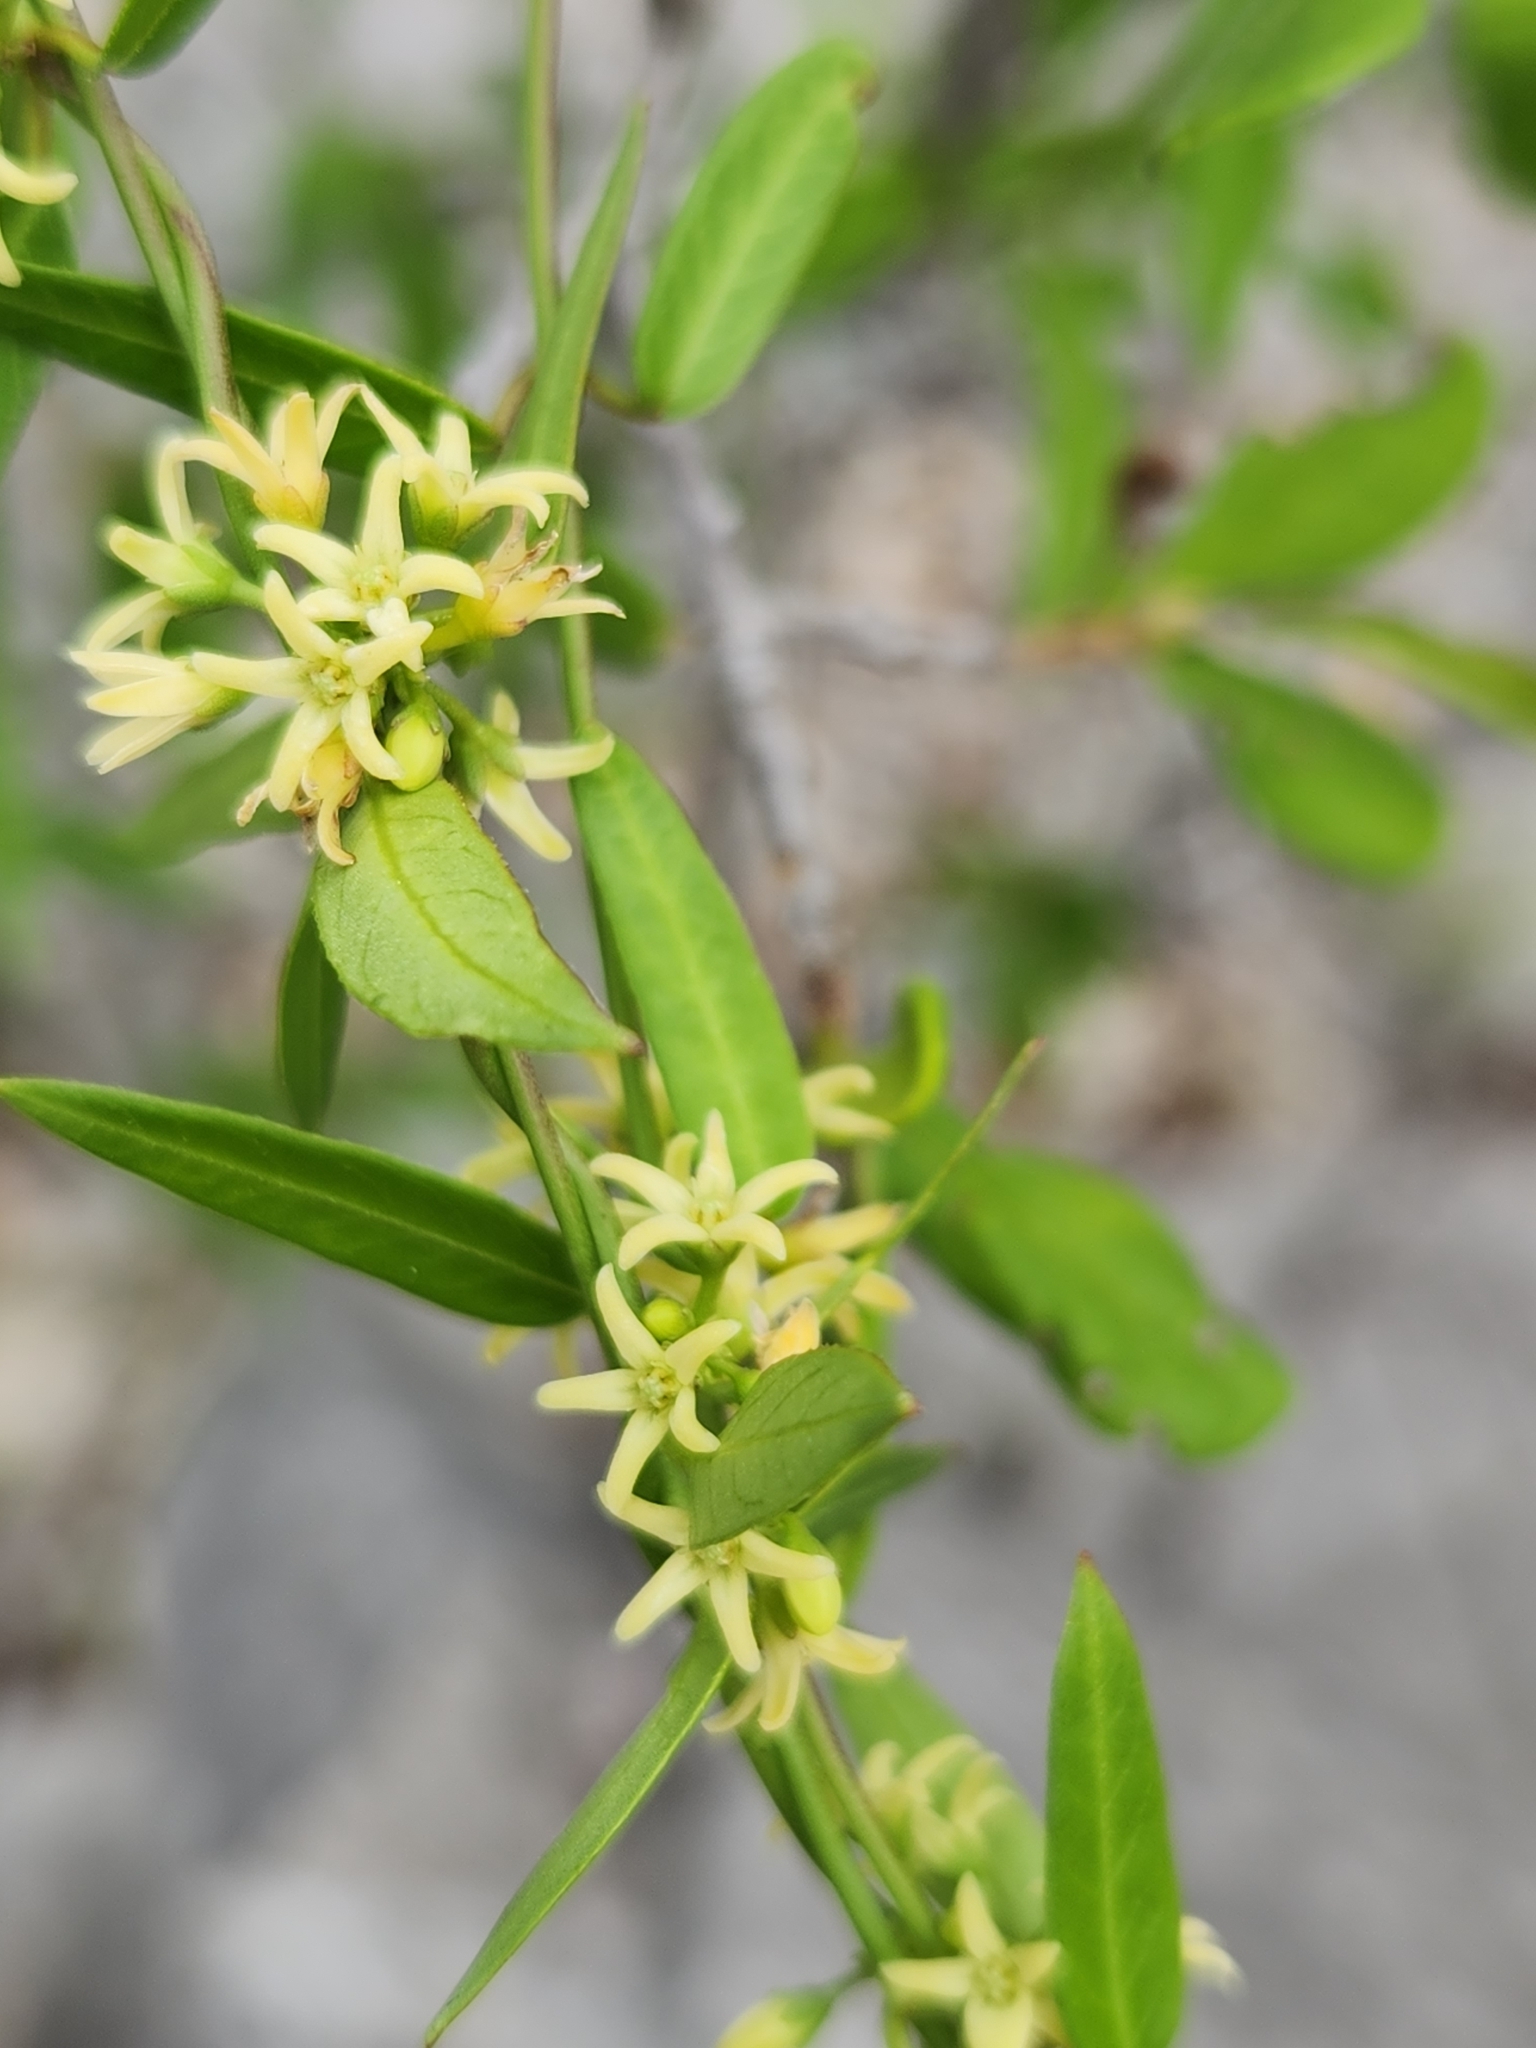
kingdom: Plantae
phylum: Tracheophyta
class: Magnoliopsida
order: Gentianales
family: Apocynaceae
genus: Metastelma
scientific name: Metastelma palmeri
